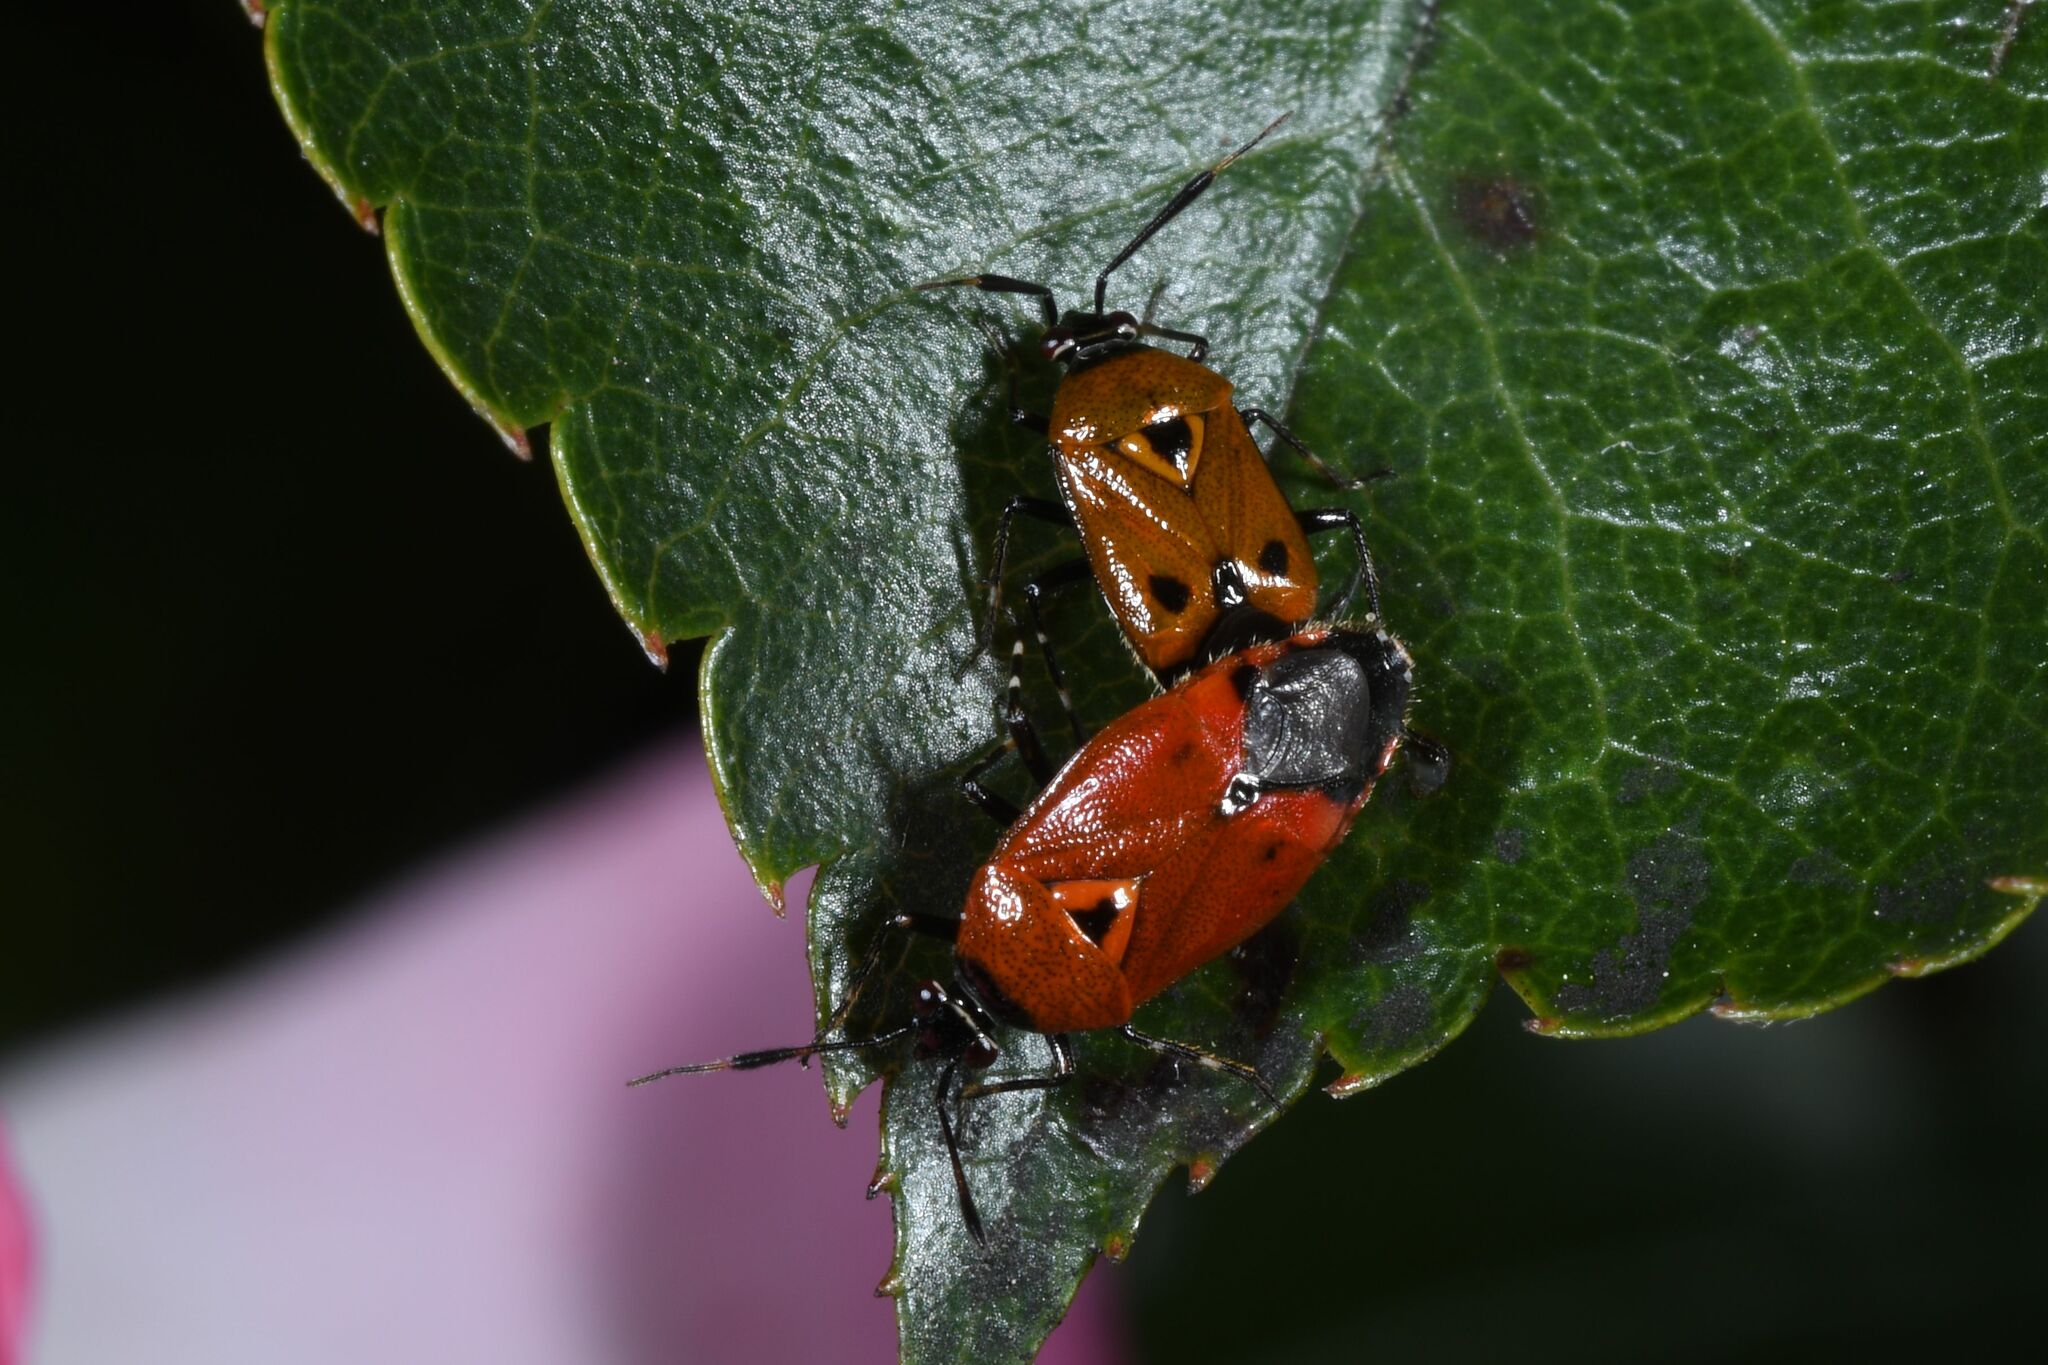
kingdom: Animalia
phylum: Arthropoda
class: Insecta
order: Hemiptera
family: Miridae
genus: Deraeocoris
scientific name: Deraeocoris punctum
